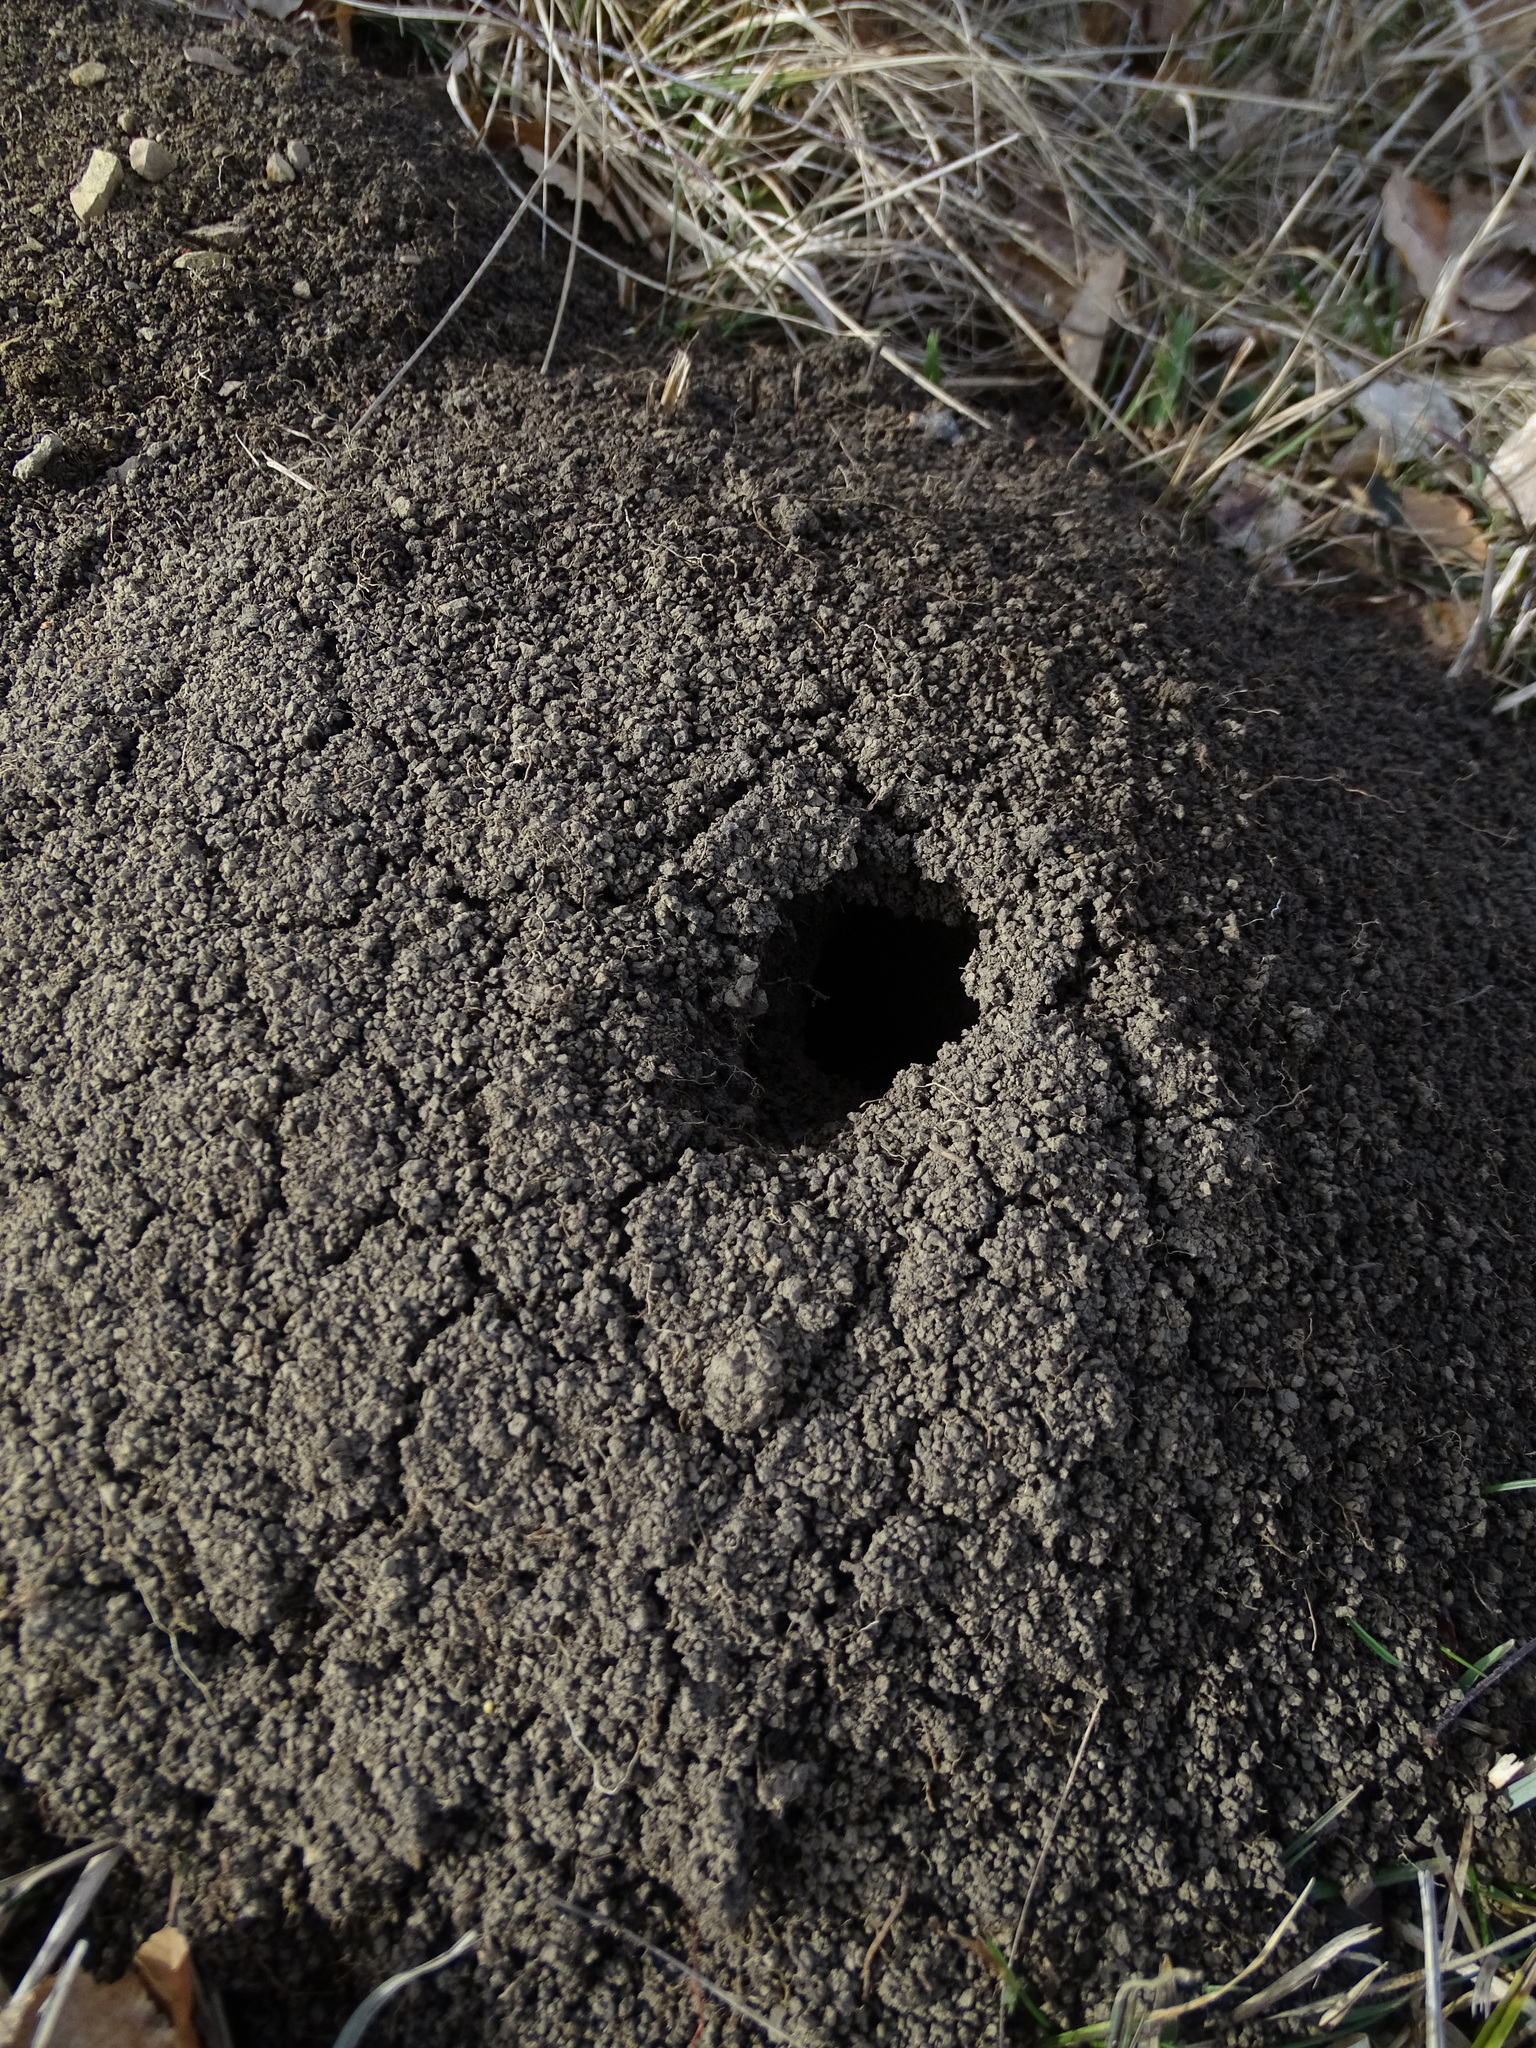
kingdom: Animalia
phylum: Chordata
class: Mammalia
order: Soricomorpha
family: Talpidae
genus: Talpa
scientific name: Talpa europaea
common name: European mole
